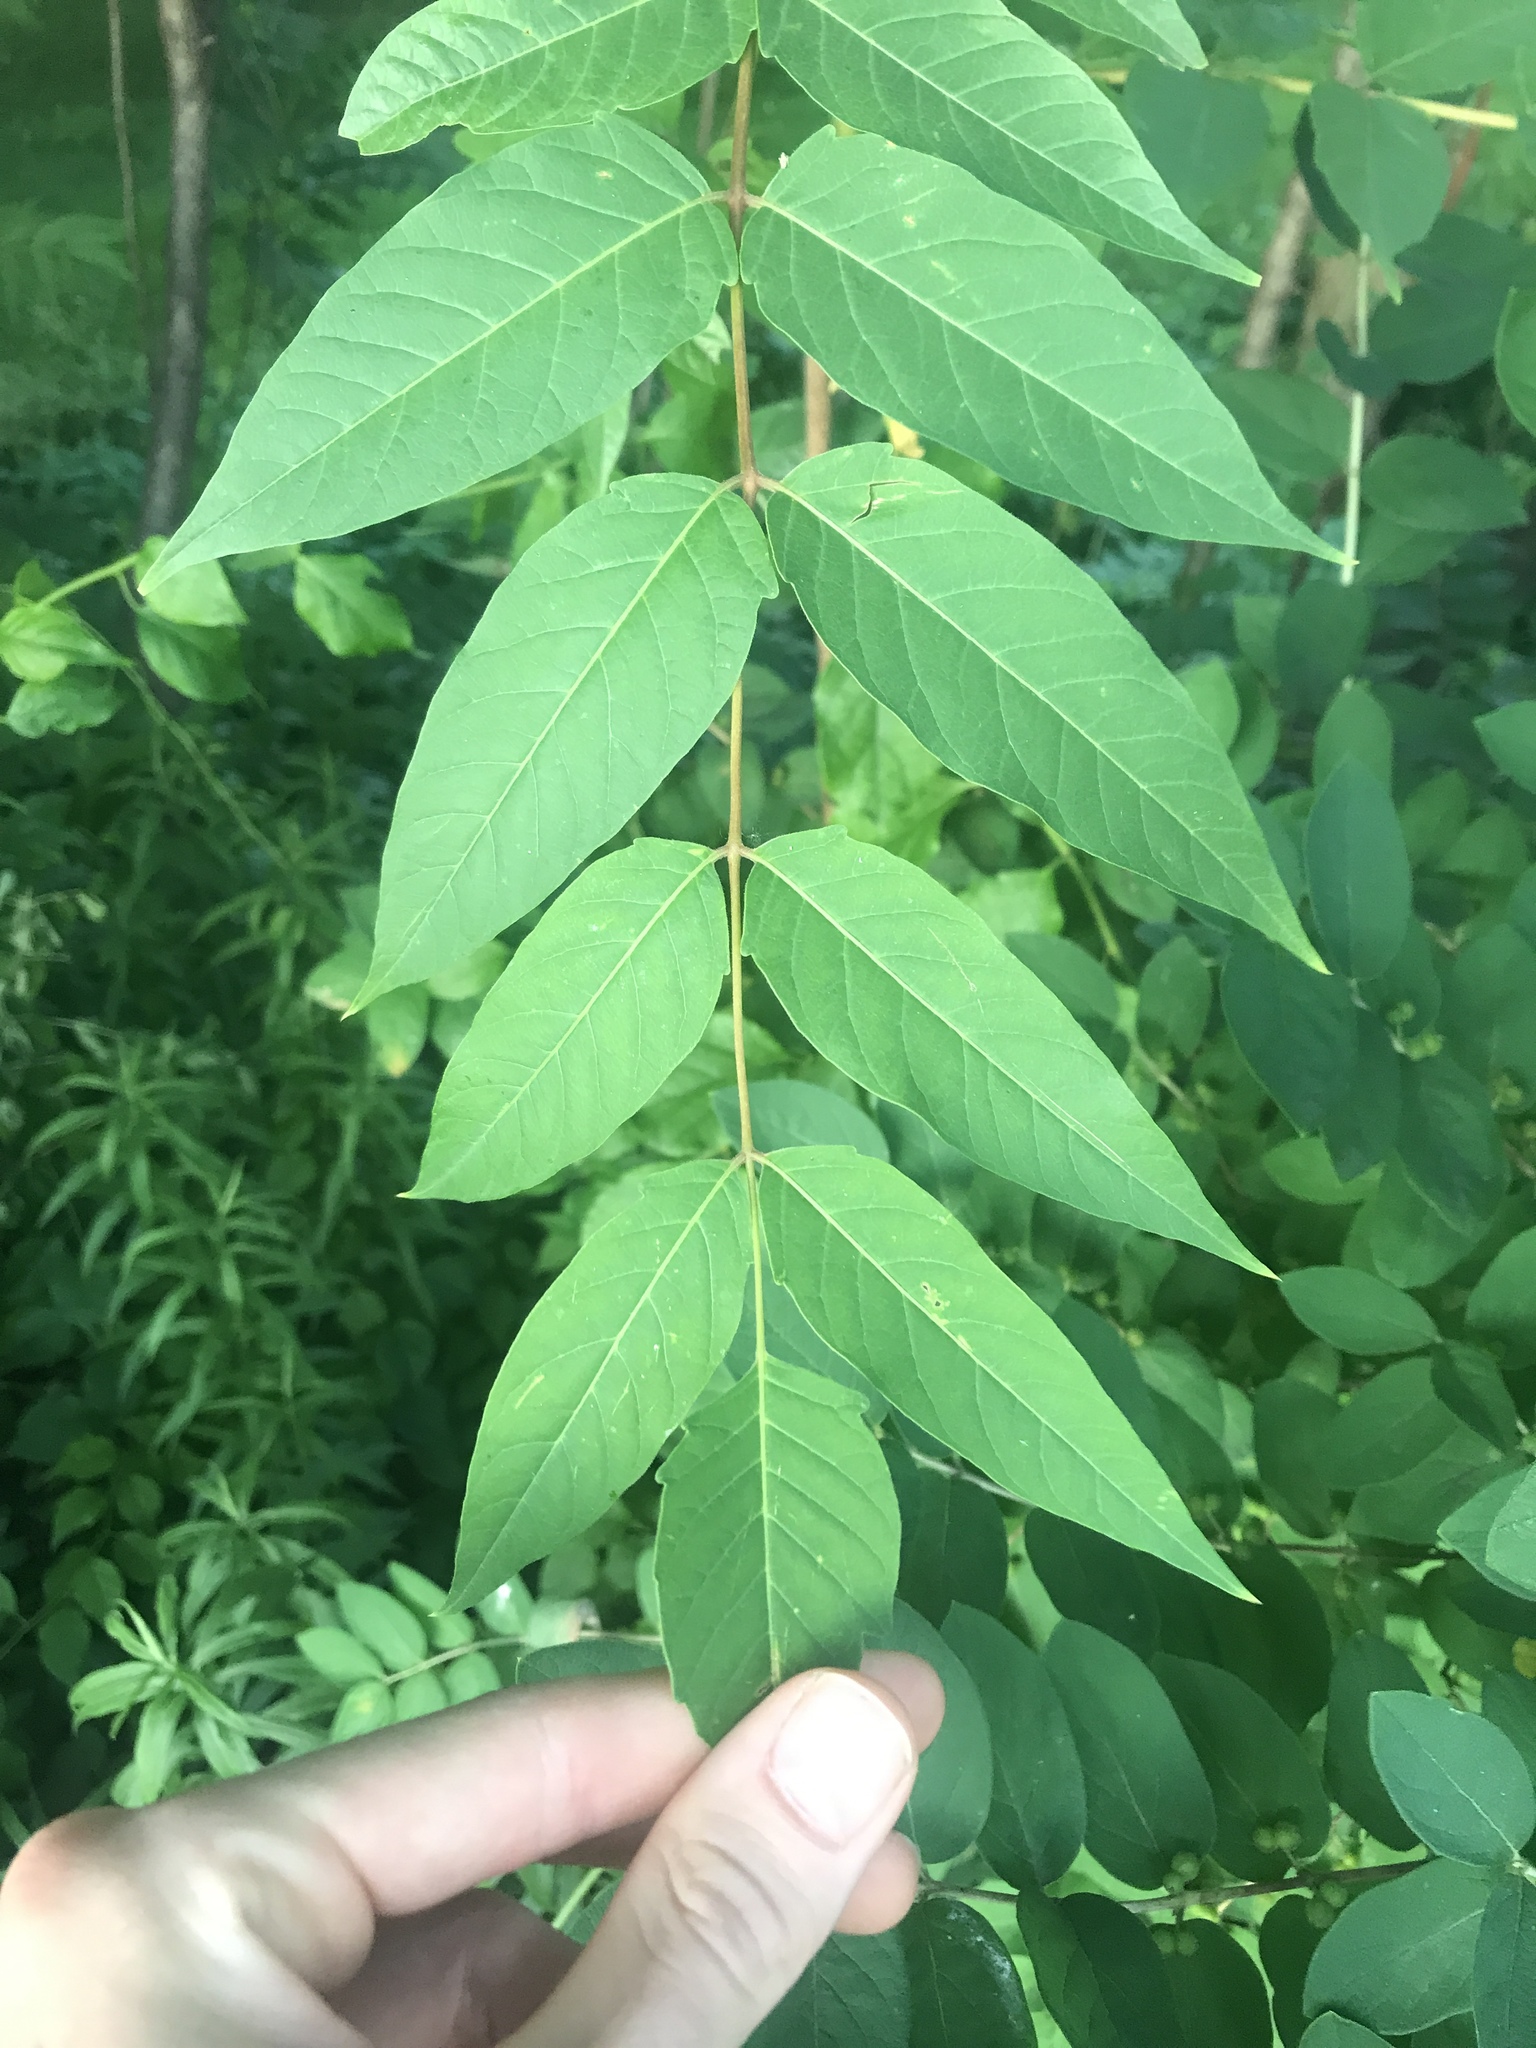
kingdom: Plantae
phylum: Tracheophyta
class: Magnoliopsida
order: Sapindales
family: Simaroubaceae
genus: Ailanthus
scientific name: Ailanthus altissima
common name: Tree-of-heaven
